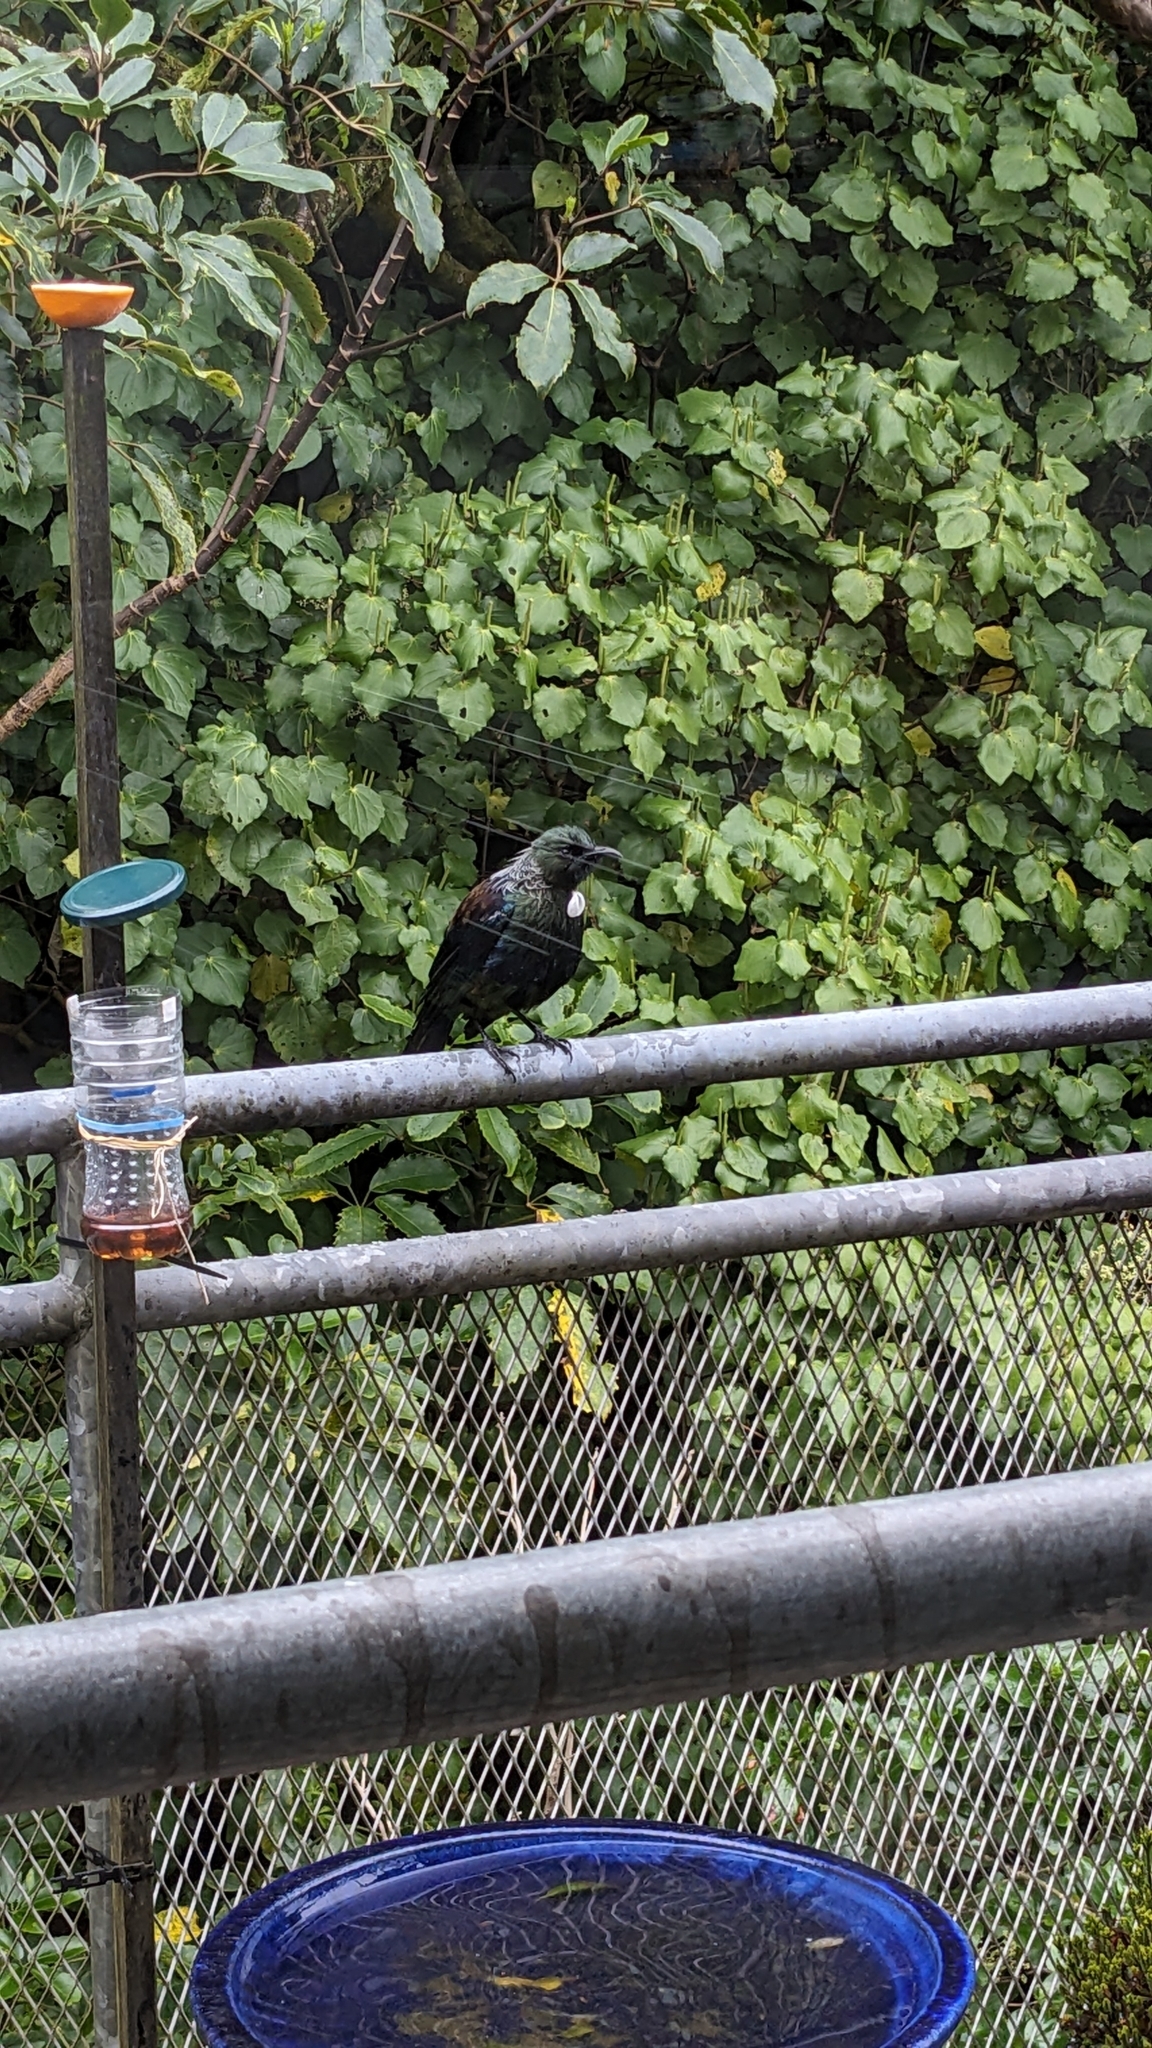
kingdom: Animalia
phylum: Chordata
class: Aves
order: Passeriformes
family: Meliphagidae
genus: Prosthemadera
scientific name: Prosthemadera novaeseelandiae
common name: Tui
